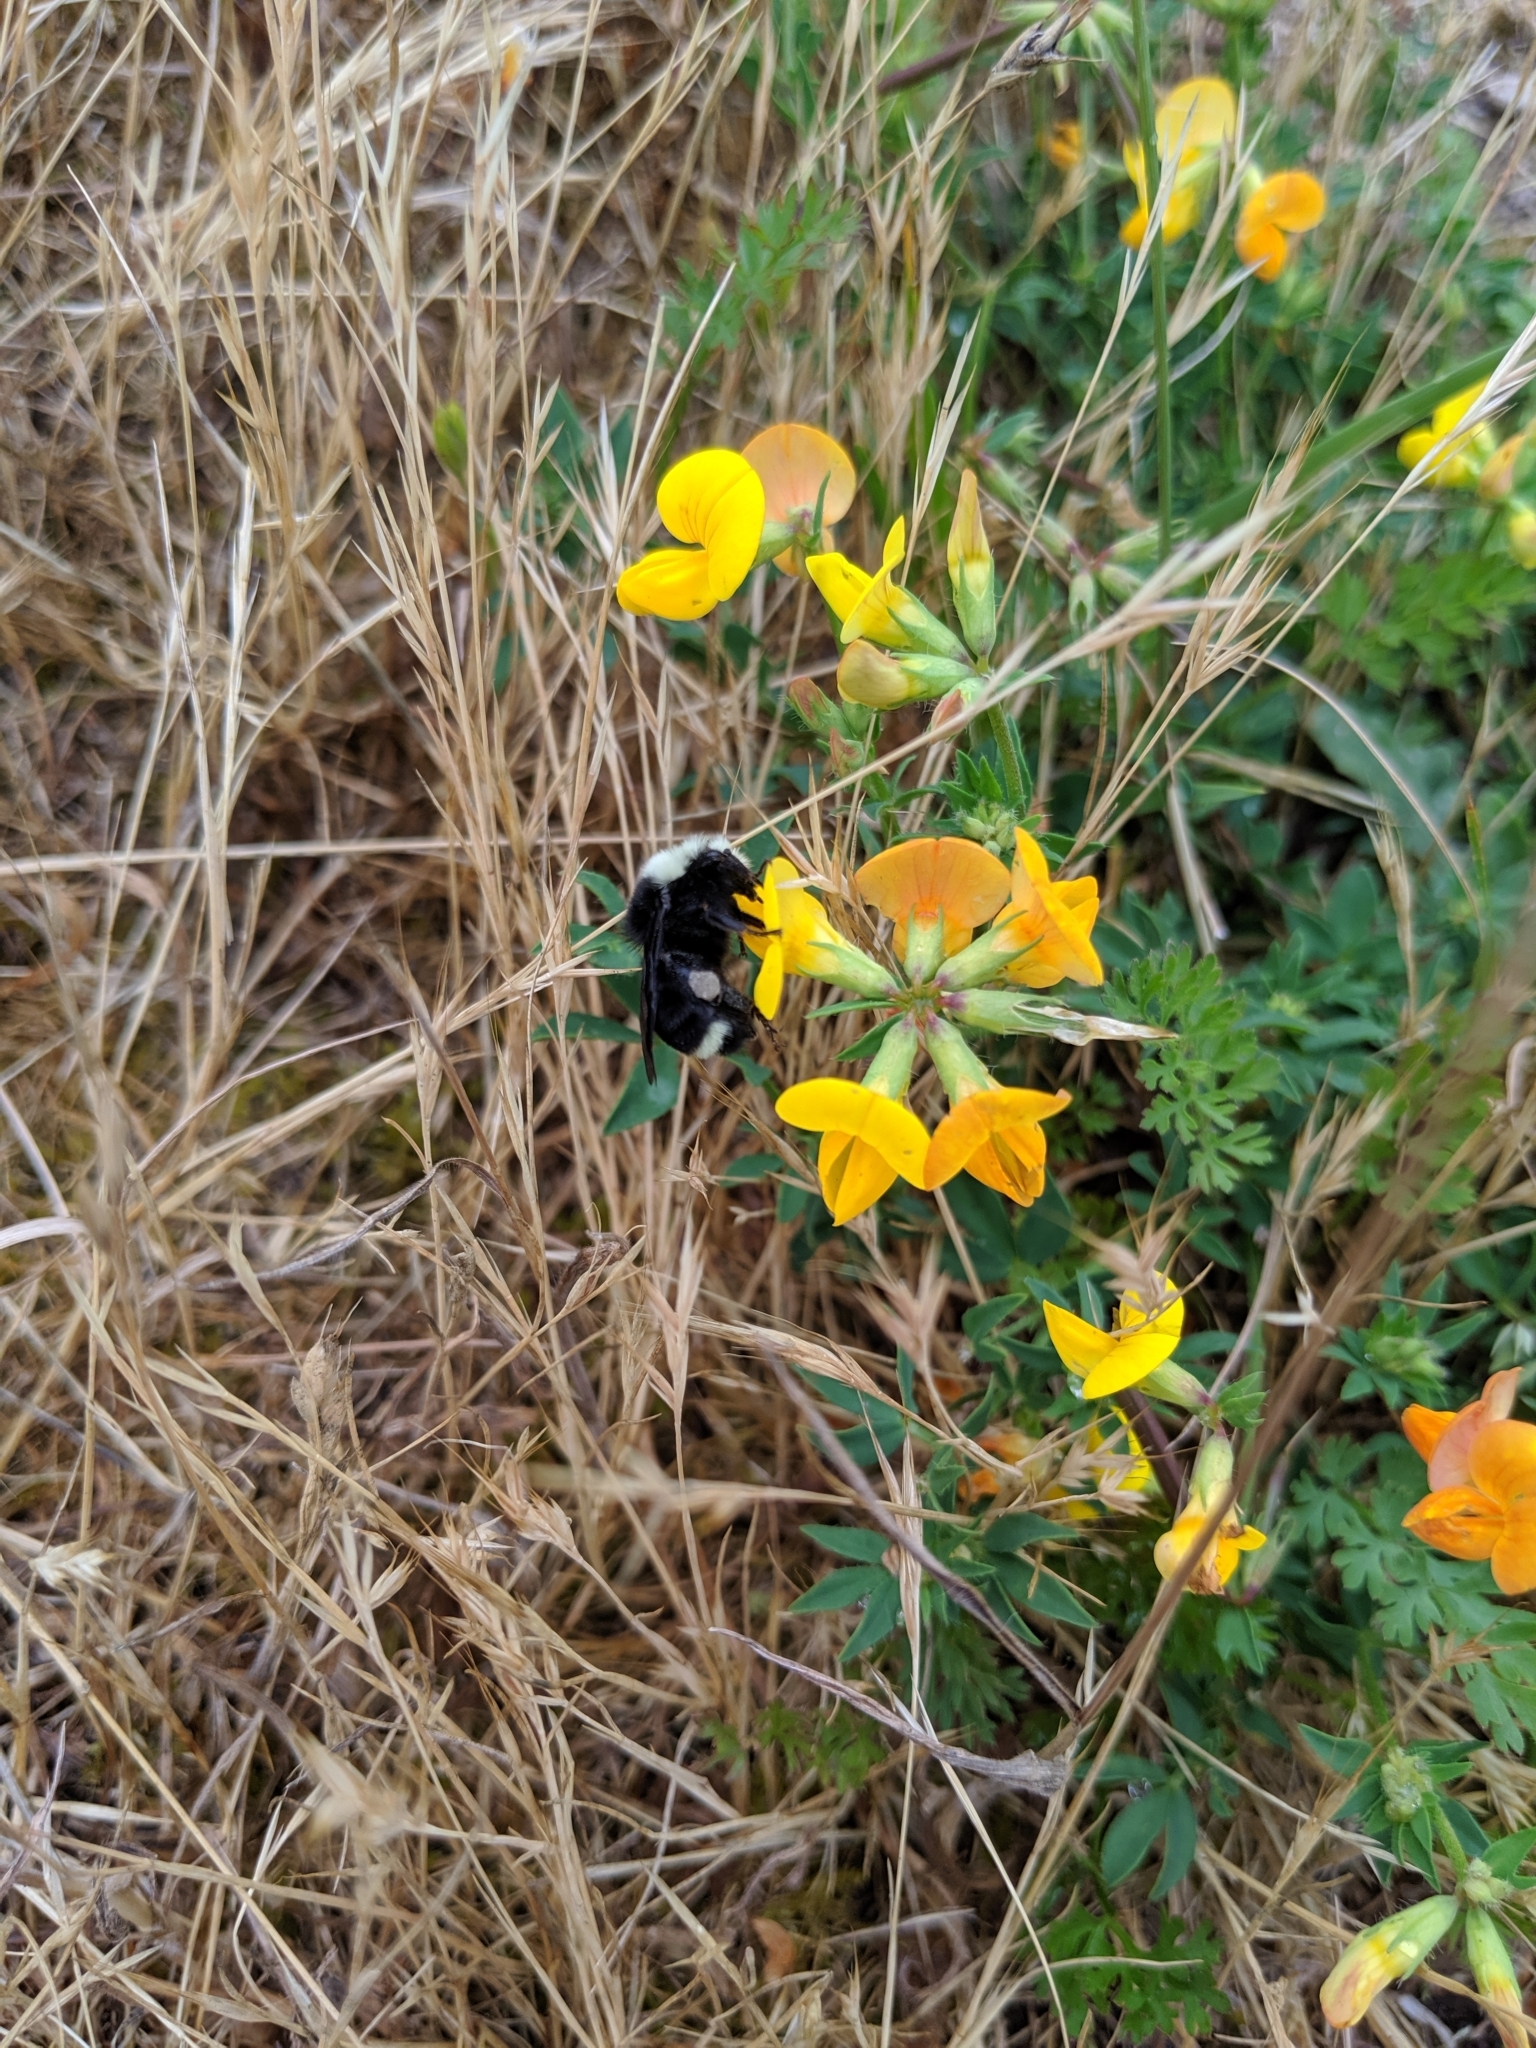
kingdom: Animalia
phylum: Arthropoda
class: Insecta
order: Hymenoptera
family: Apidae
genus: Bombus
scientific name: Bombus vosnesenskii
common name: Vosnesensky bumble bee
